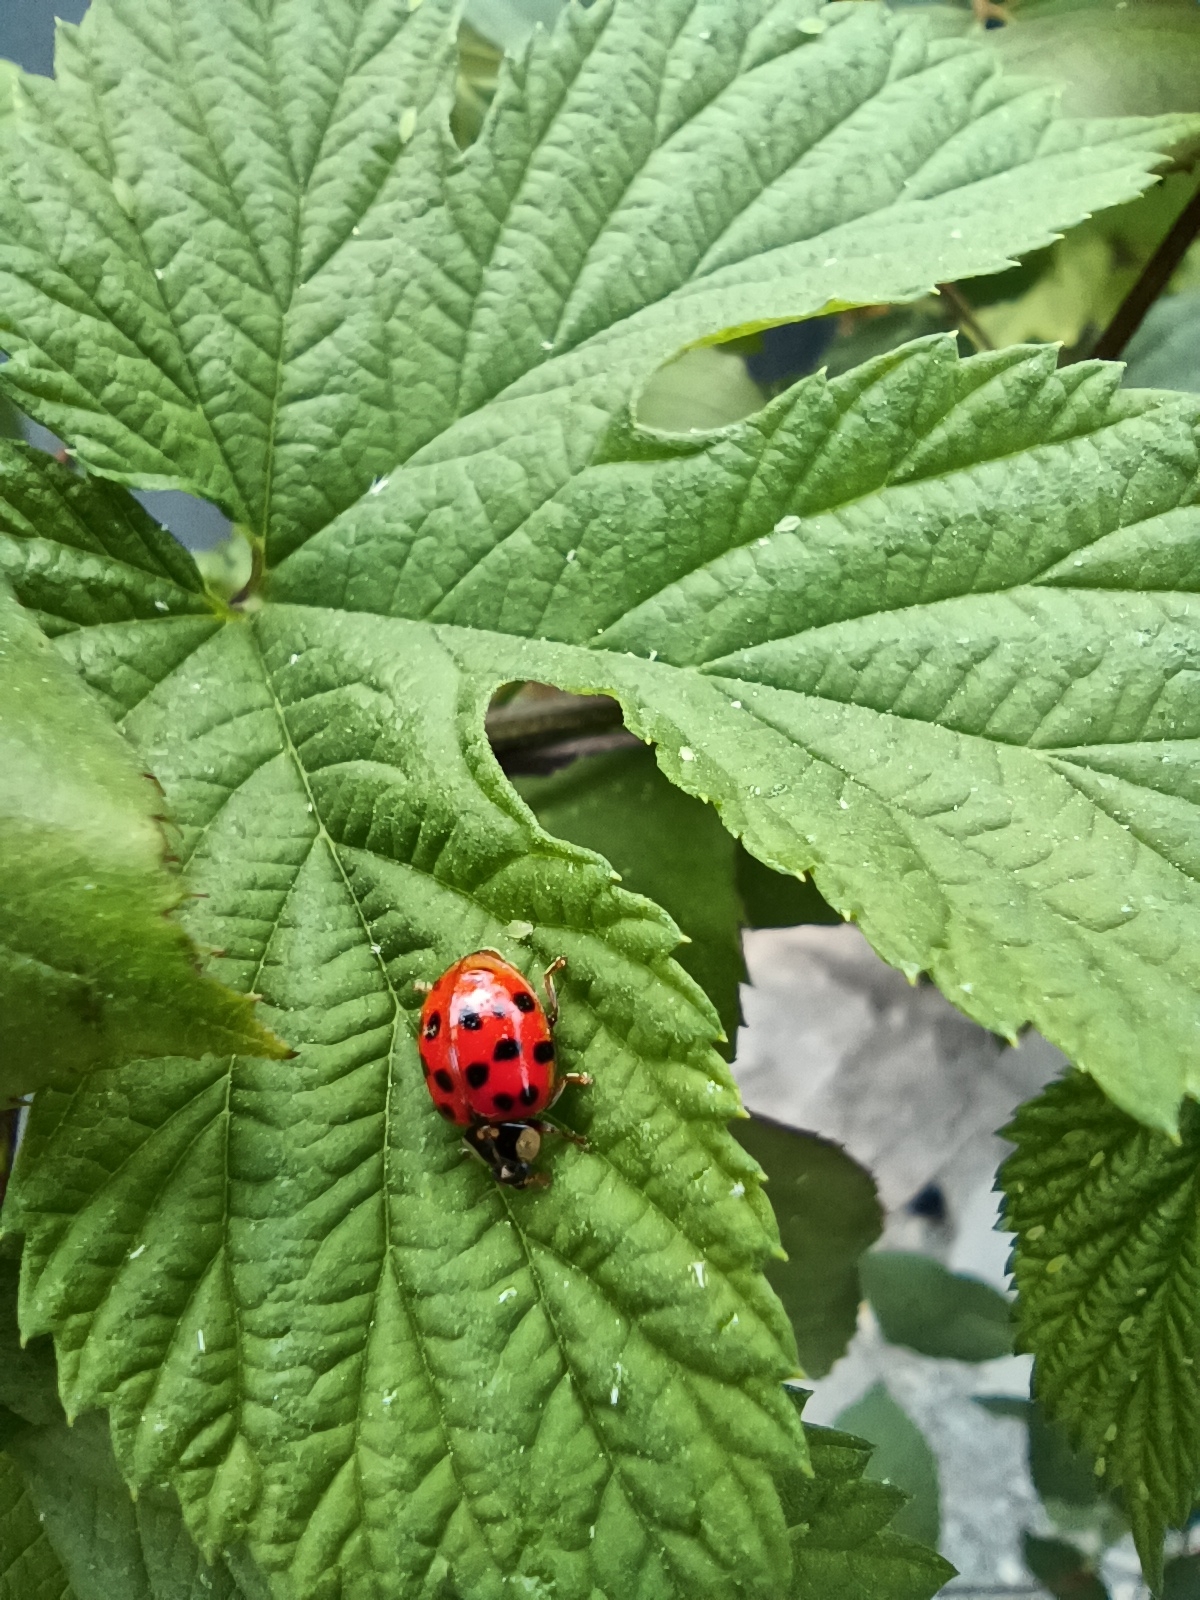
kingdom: Animalia
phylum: Arthropoda
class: Insecta
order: Coleoptera
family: Coccinellidae
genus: Harmonia
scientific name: Harmonia axyridis
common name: Harlequin ladybird
